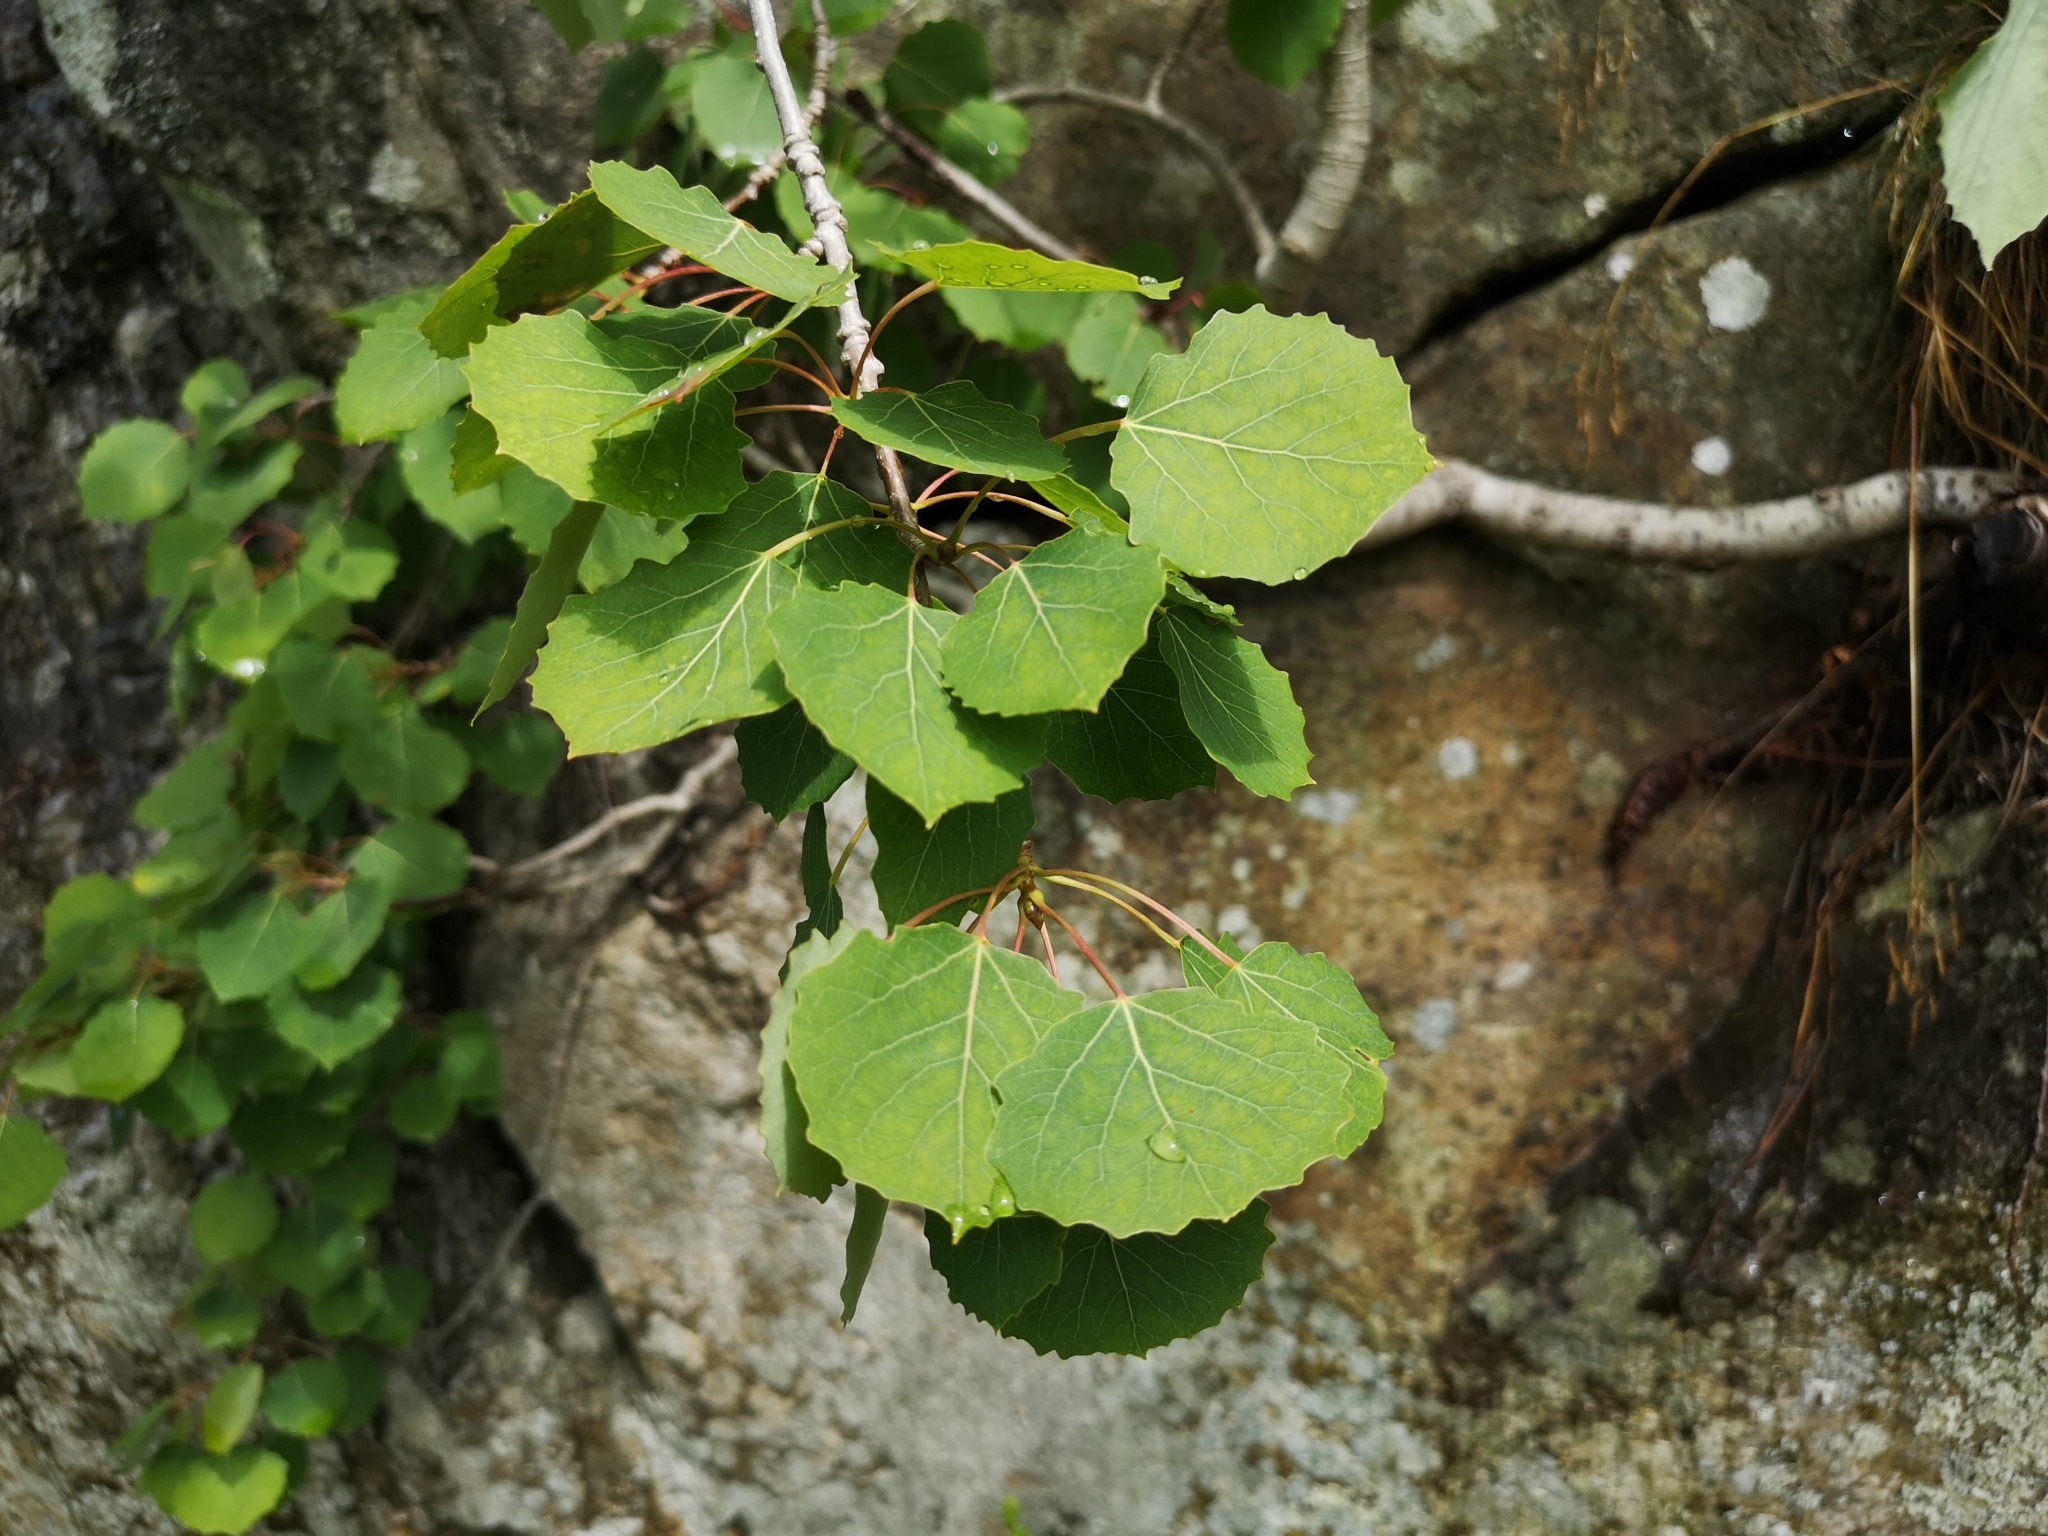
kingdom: Plantae
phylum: Tracheophyta
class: Magnoliopsida
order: Malpighiales
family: Salicaceae
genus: Populus
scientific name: Populus tremula
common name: European aspen
